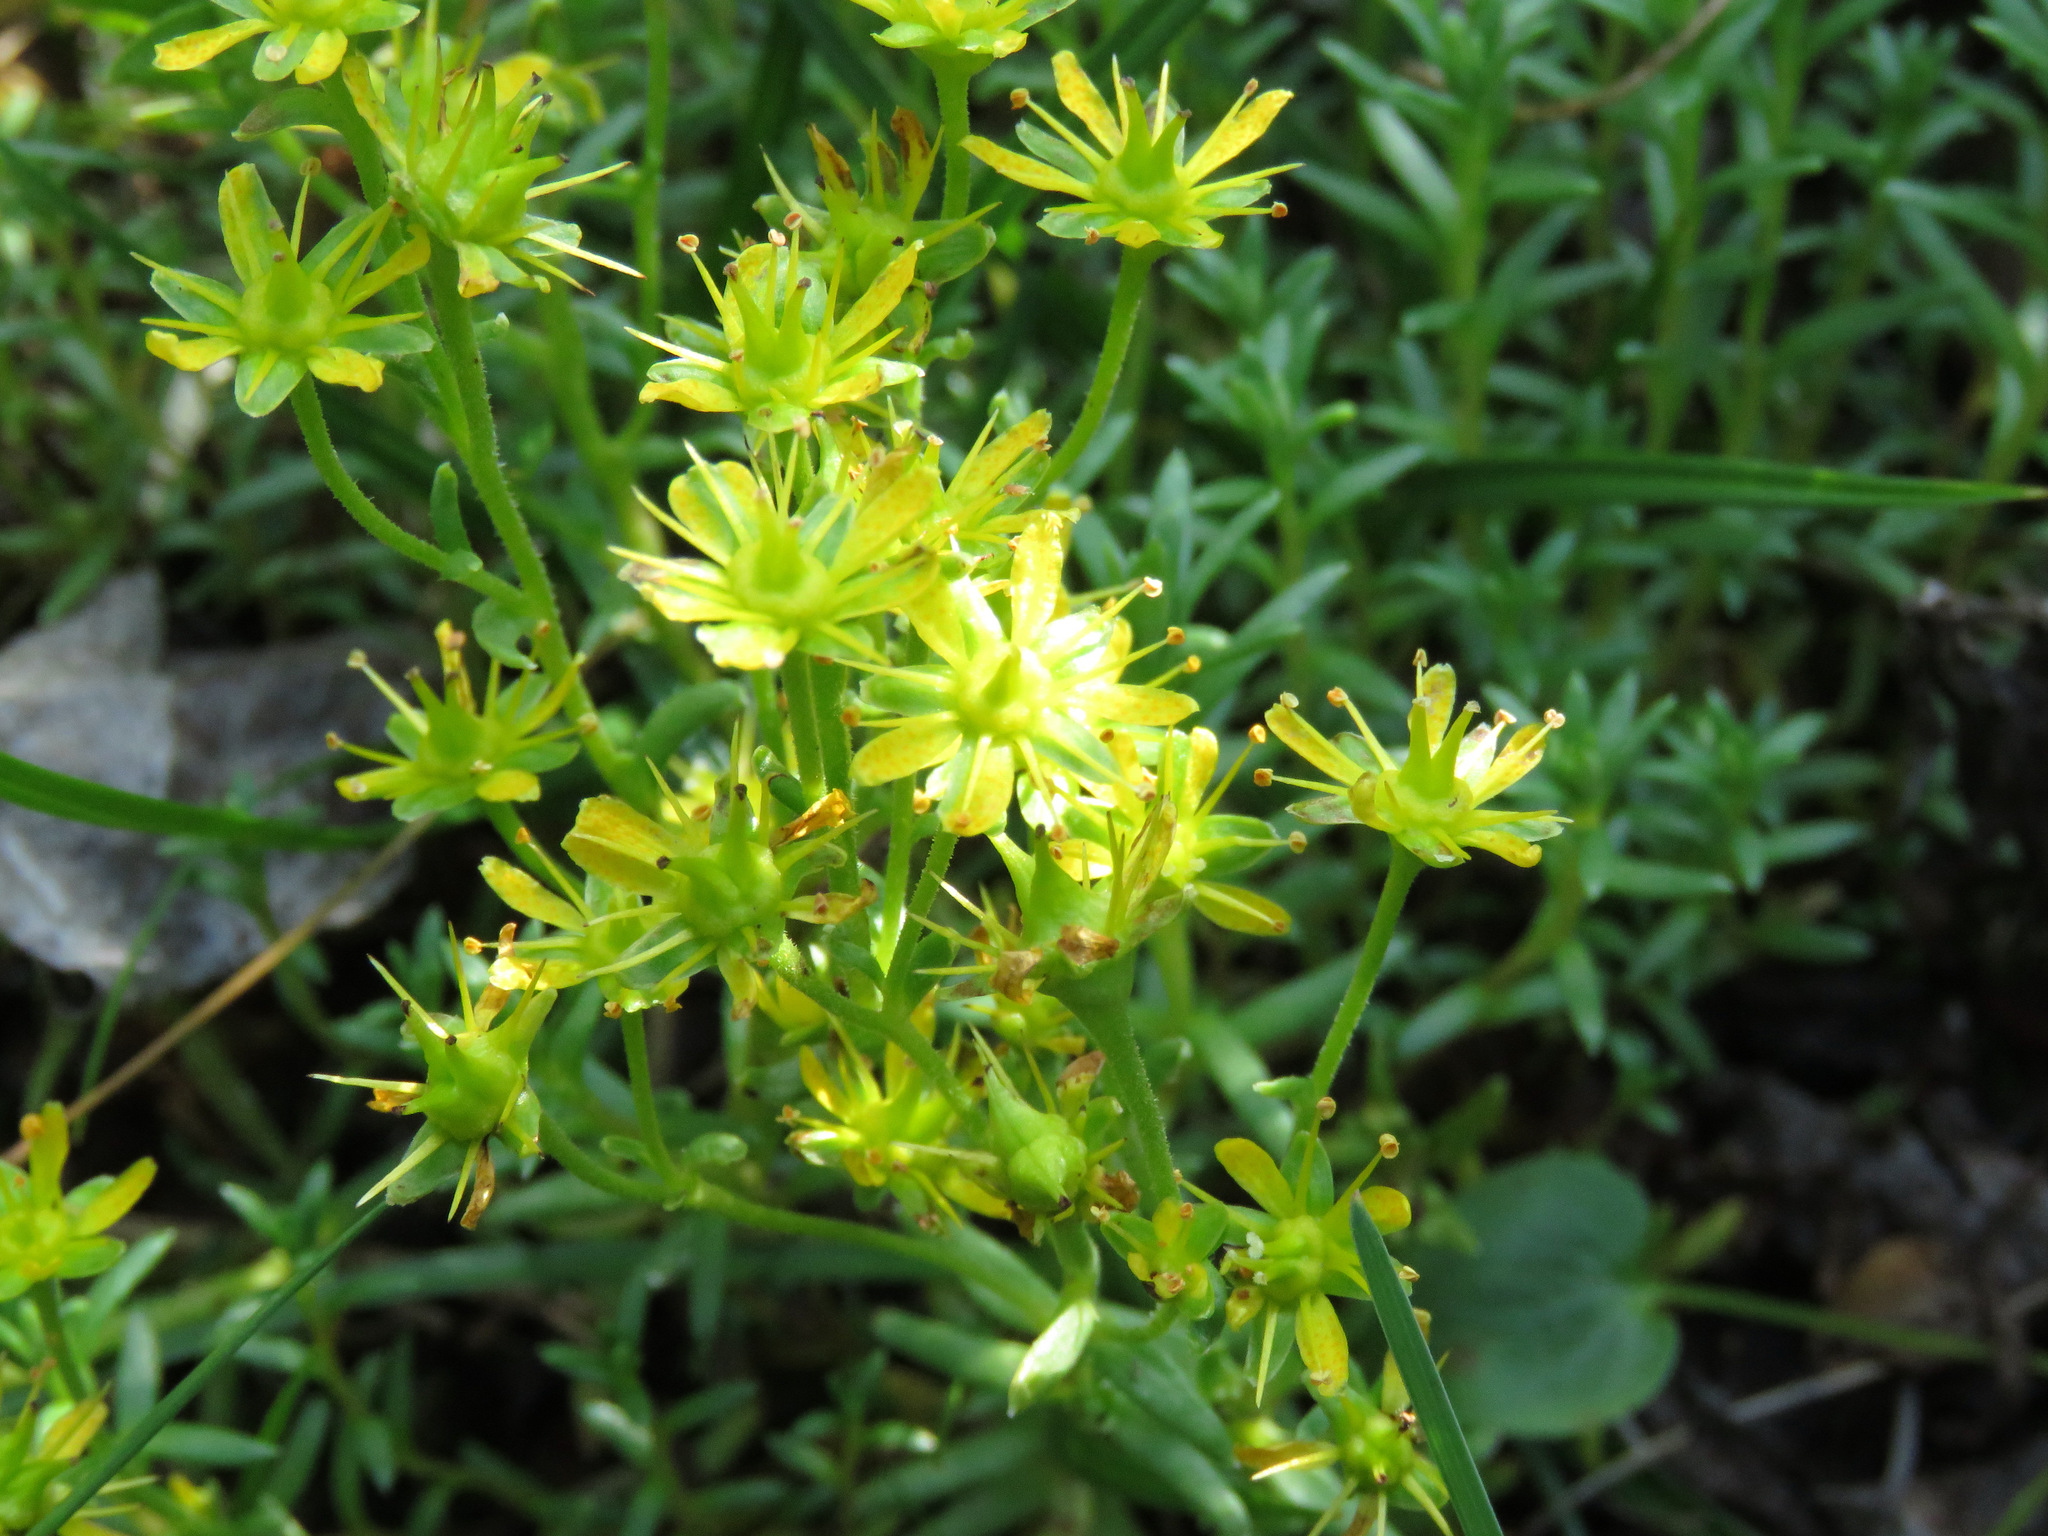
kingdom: Plantae
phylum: Tracheophyta
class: Magnoliopsida
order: Saxifragales
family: Saxifragaceae
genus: Saxifraga
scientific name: Saxifraga aizoides
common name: Yellow mountain saxifrage
